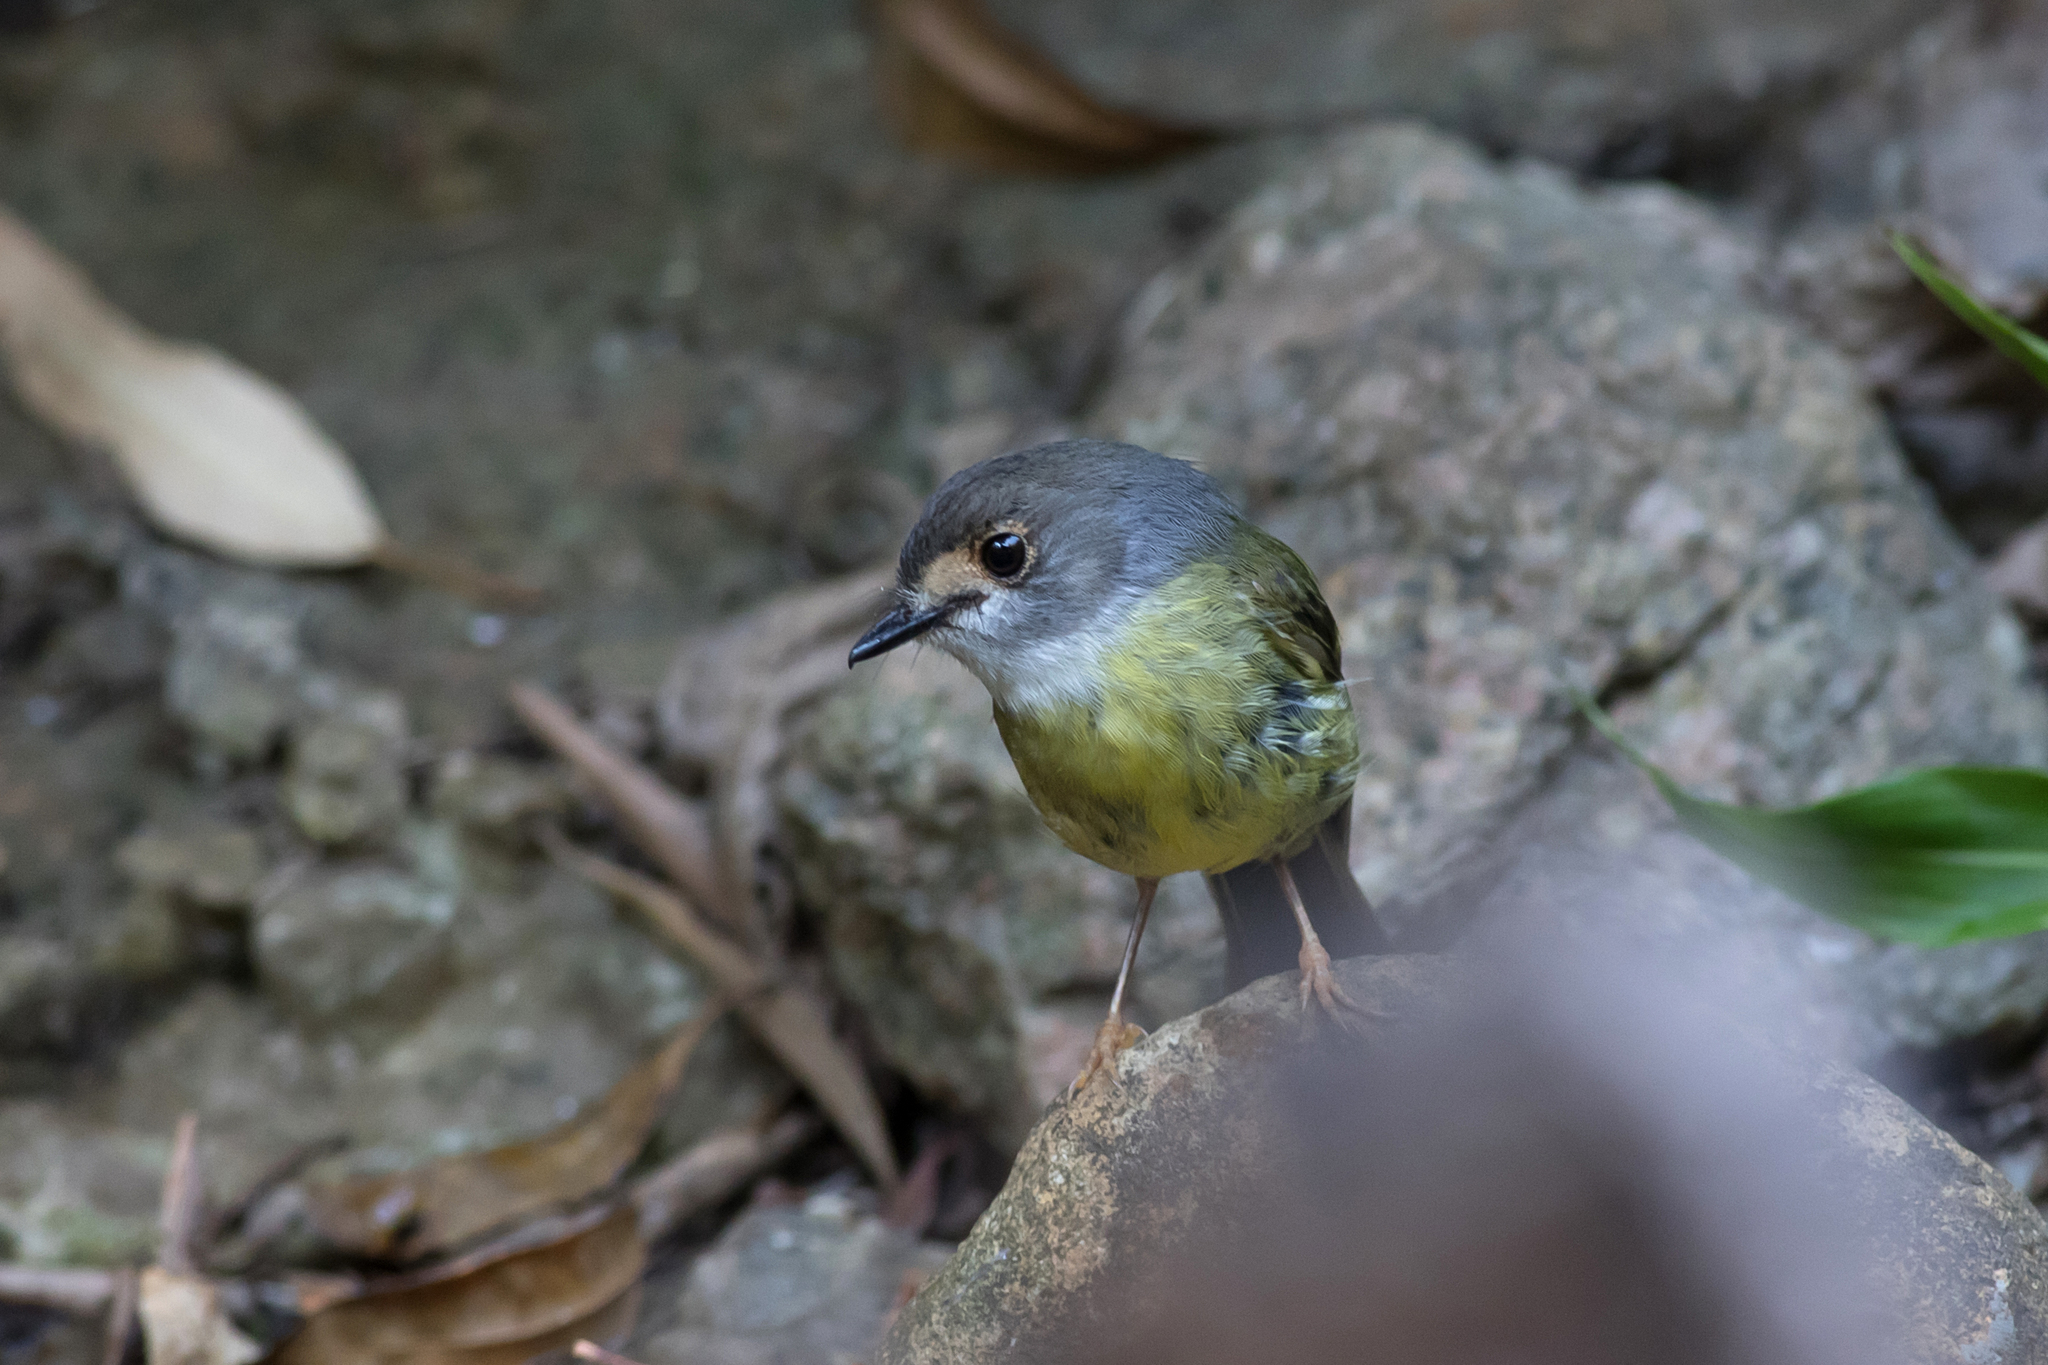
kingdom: Animalia
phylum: Chordata
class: Aves
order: Passeriformes
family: Petroicidae
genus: Eopsaltria
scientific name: Eopsaltria
